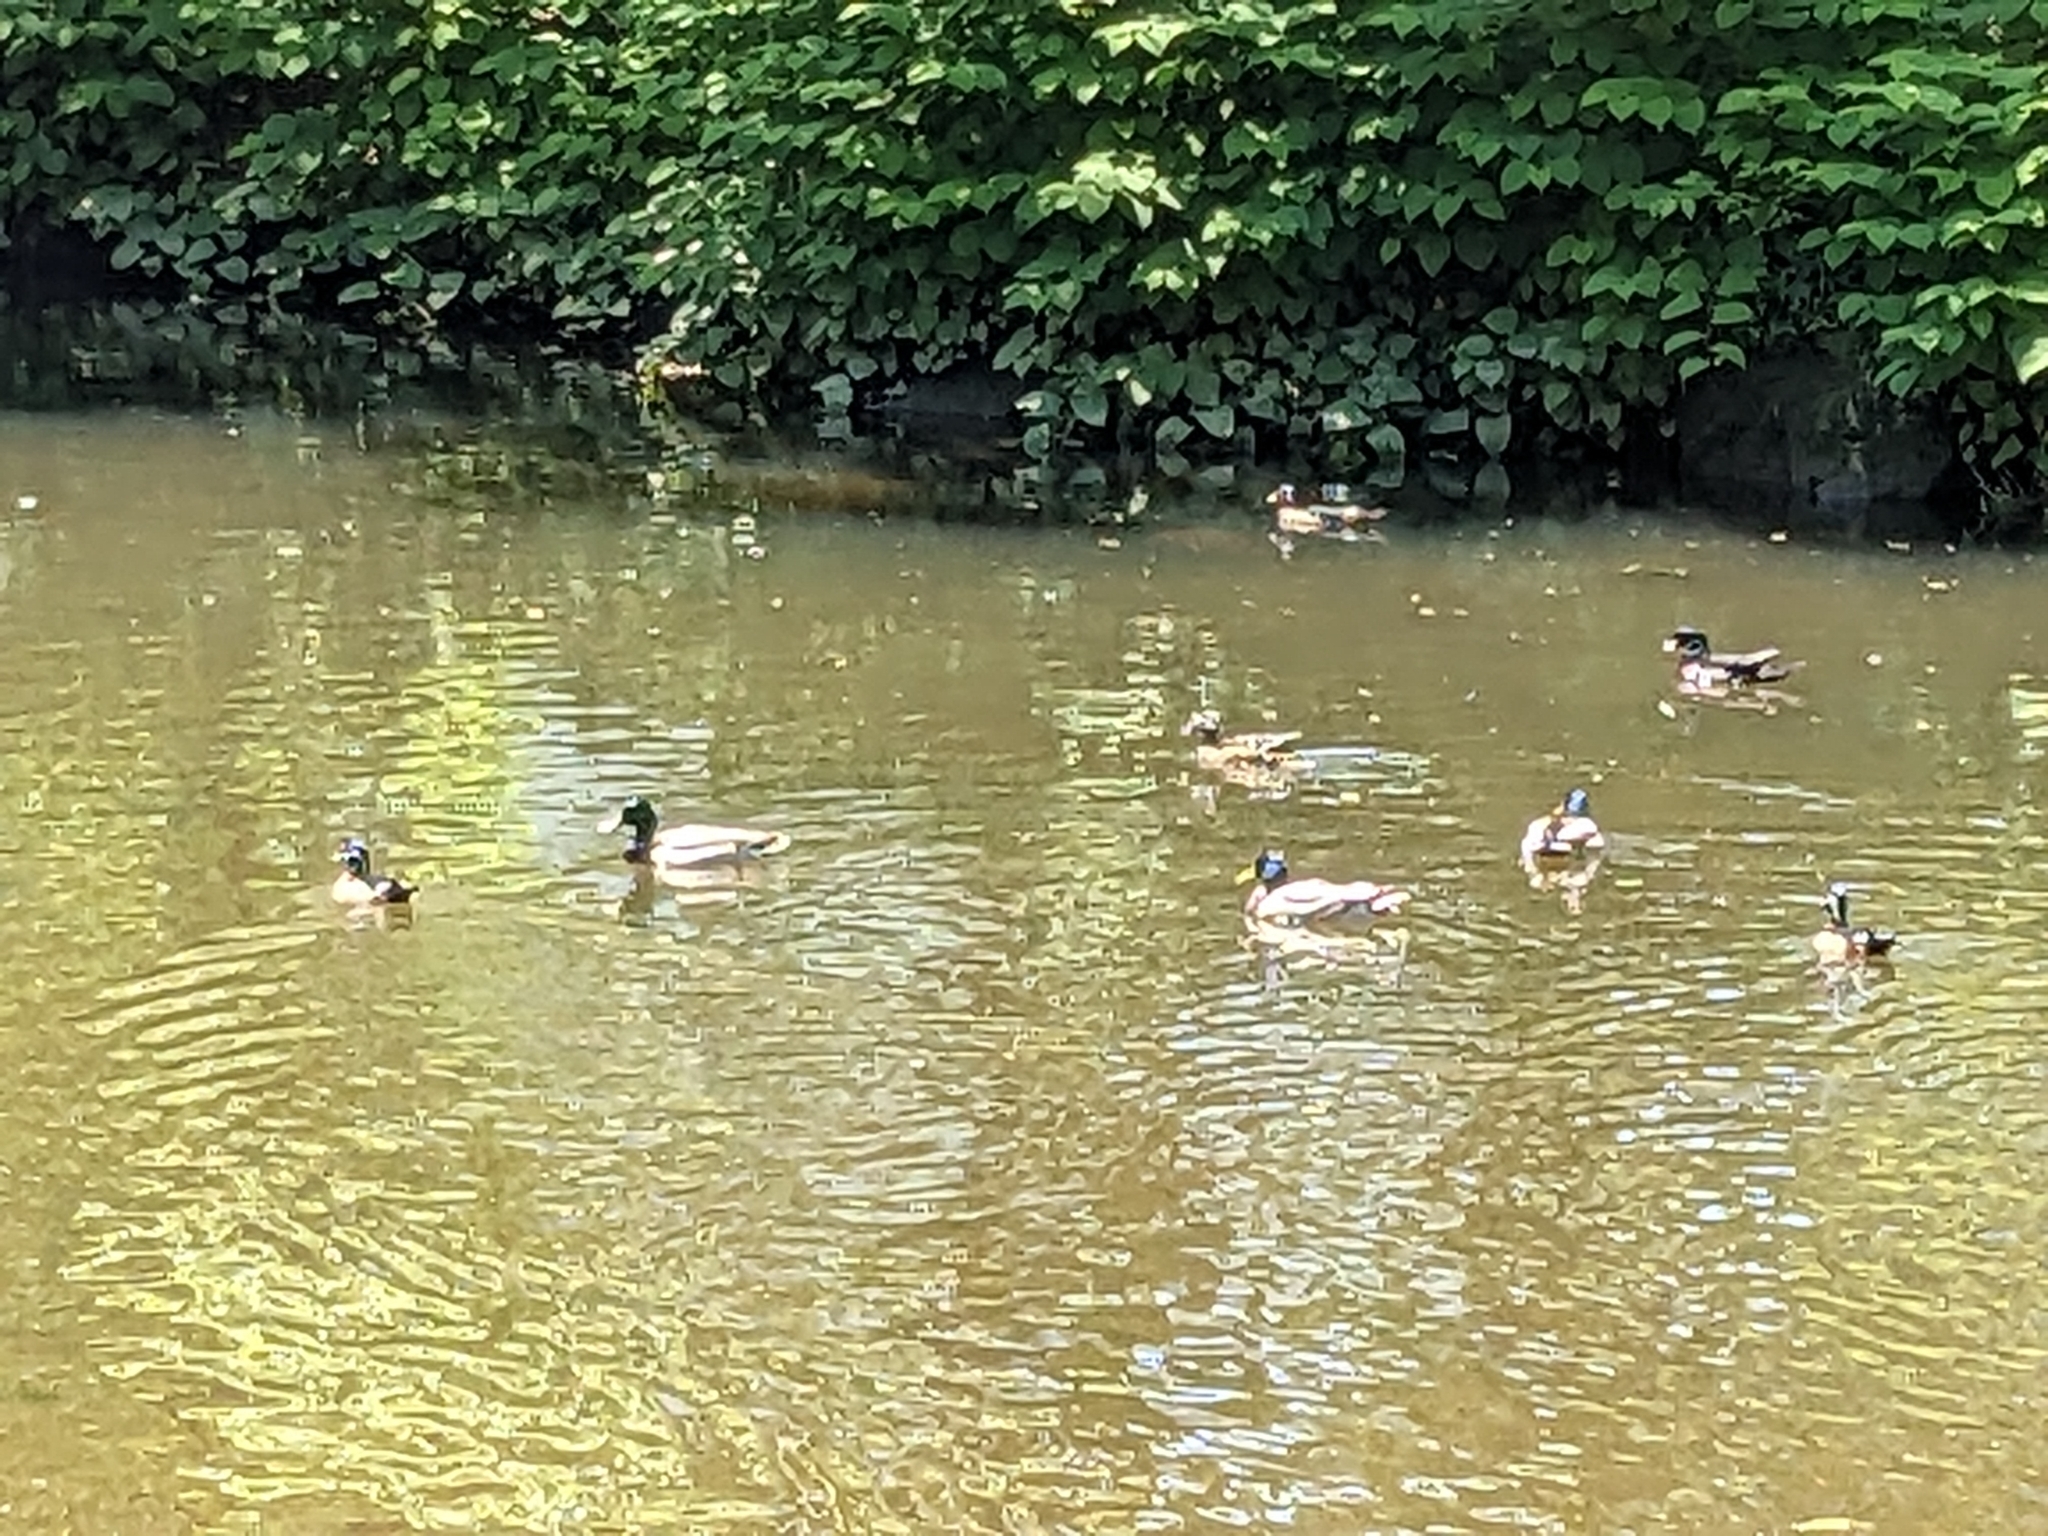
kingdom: Animalia
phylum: Chordata
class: Aves
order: Anseriformes
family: Anatidae
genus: Aix
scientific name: Aix sponsa
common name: Wood duck
